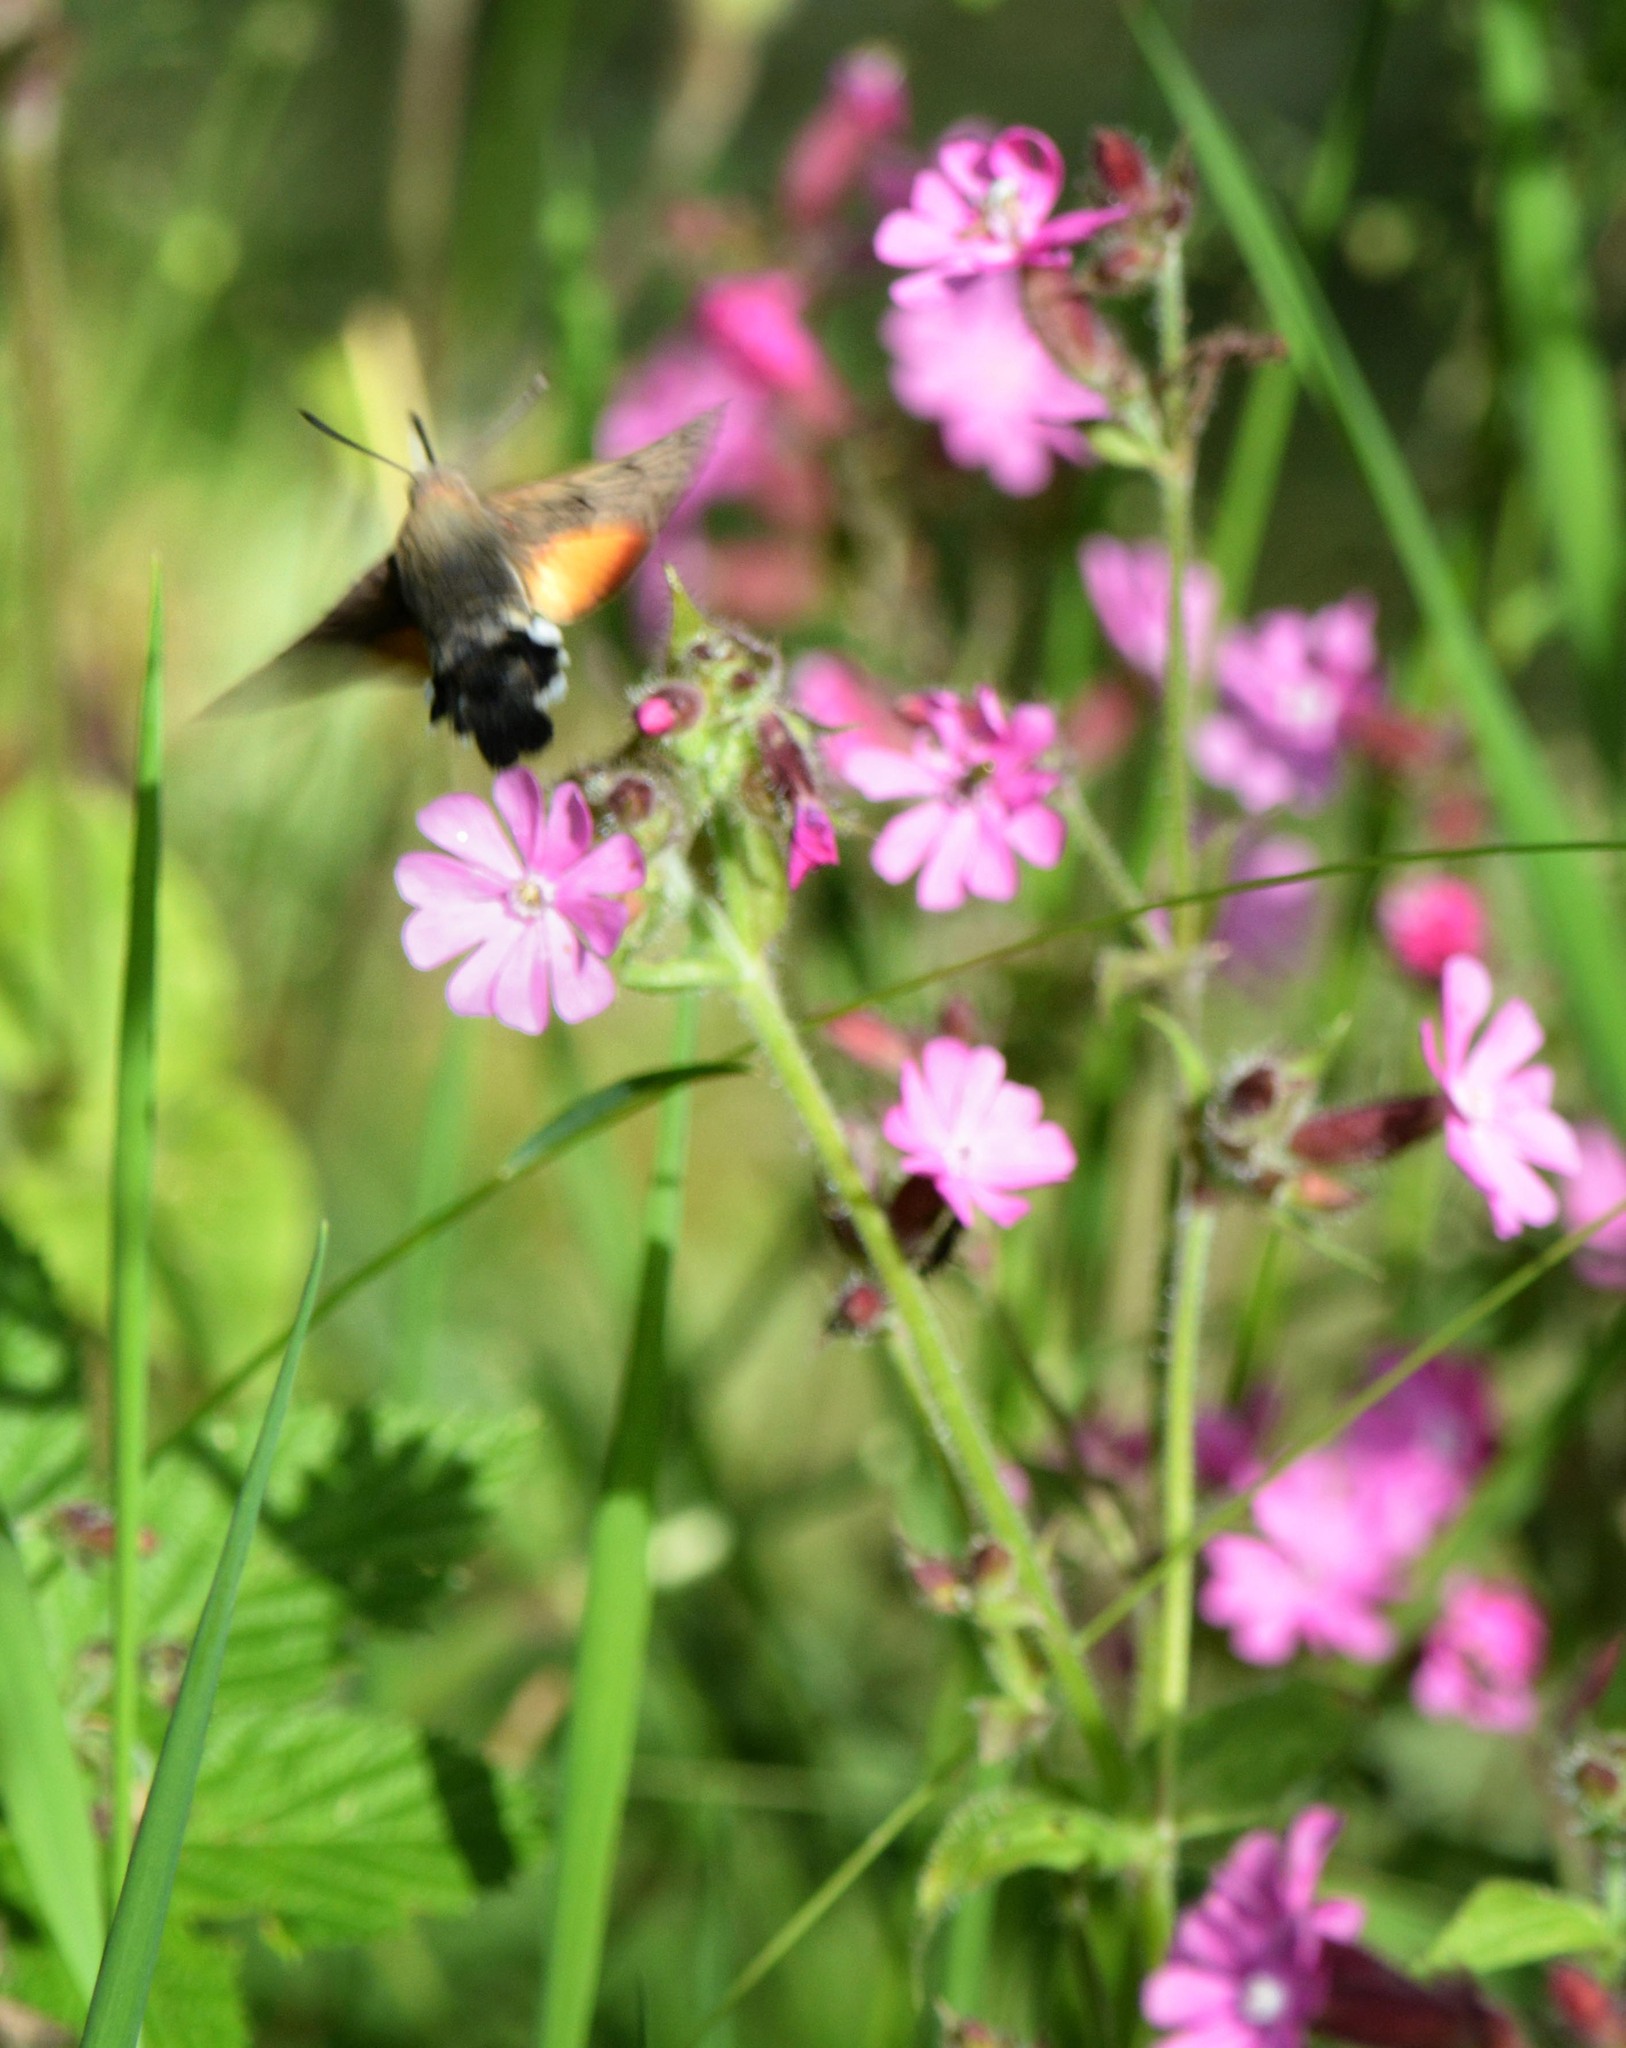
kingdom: Animalia
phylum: Arthropoda
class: Insecta
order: Lepidoptera
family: Sphingidae
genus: Macroglossum
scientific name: Macroglossum stellatarum
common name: Humming-bird hawk-moth
